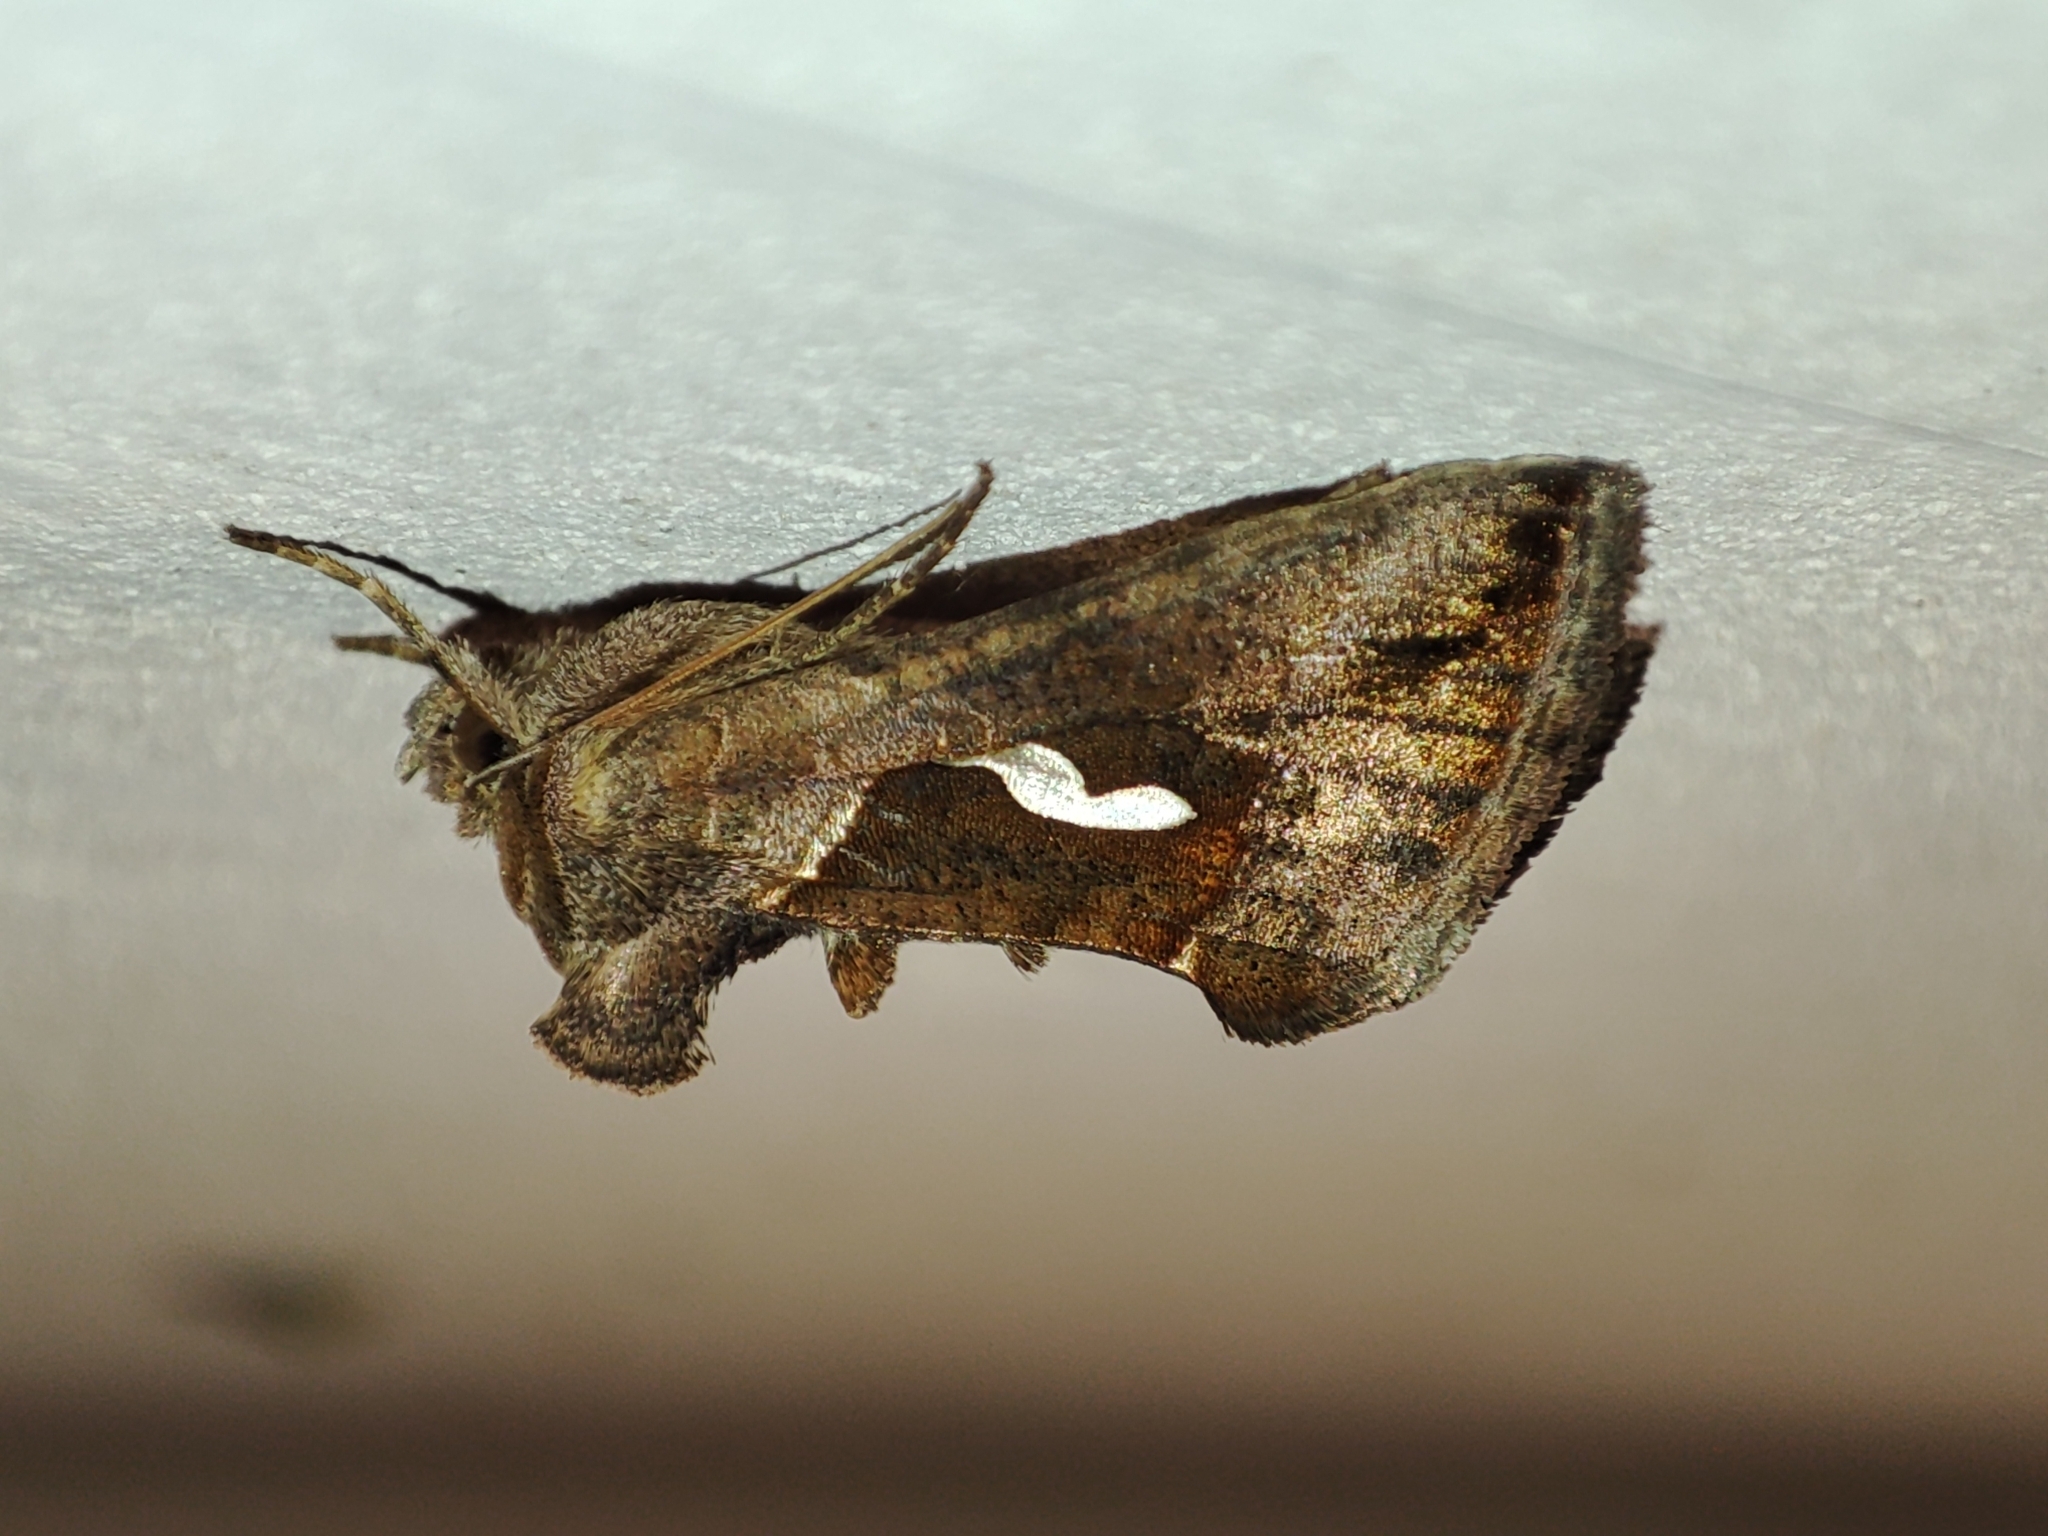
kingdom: Animalia
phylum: Arthropoda
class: Insecta
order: Lepidoptera
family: Noctuidae
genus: Macdunnoughia
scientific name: Macdunnoughia confusa
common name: Dewick's plusia
